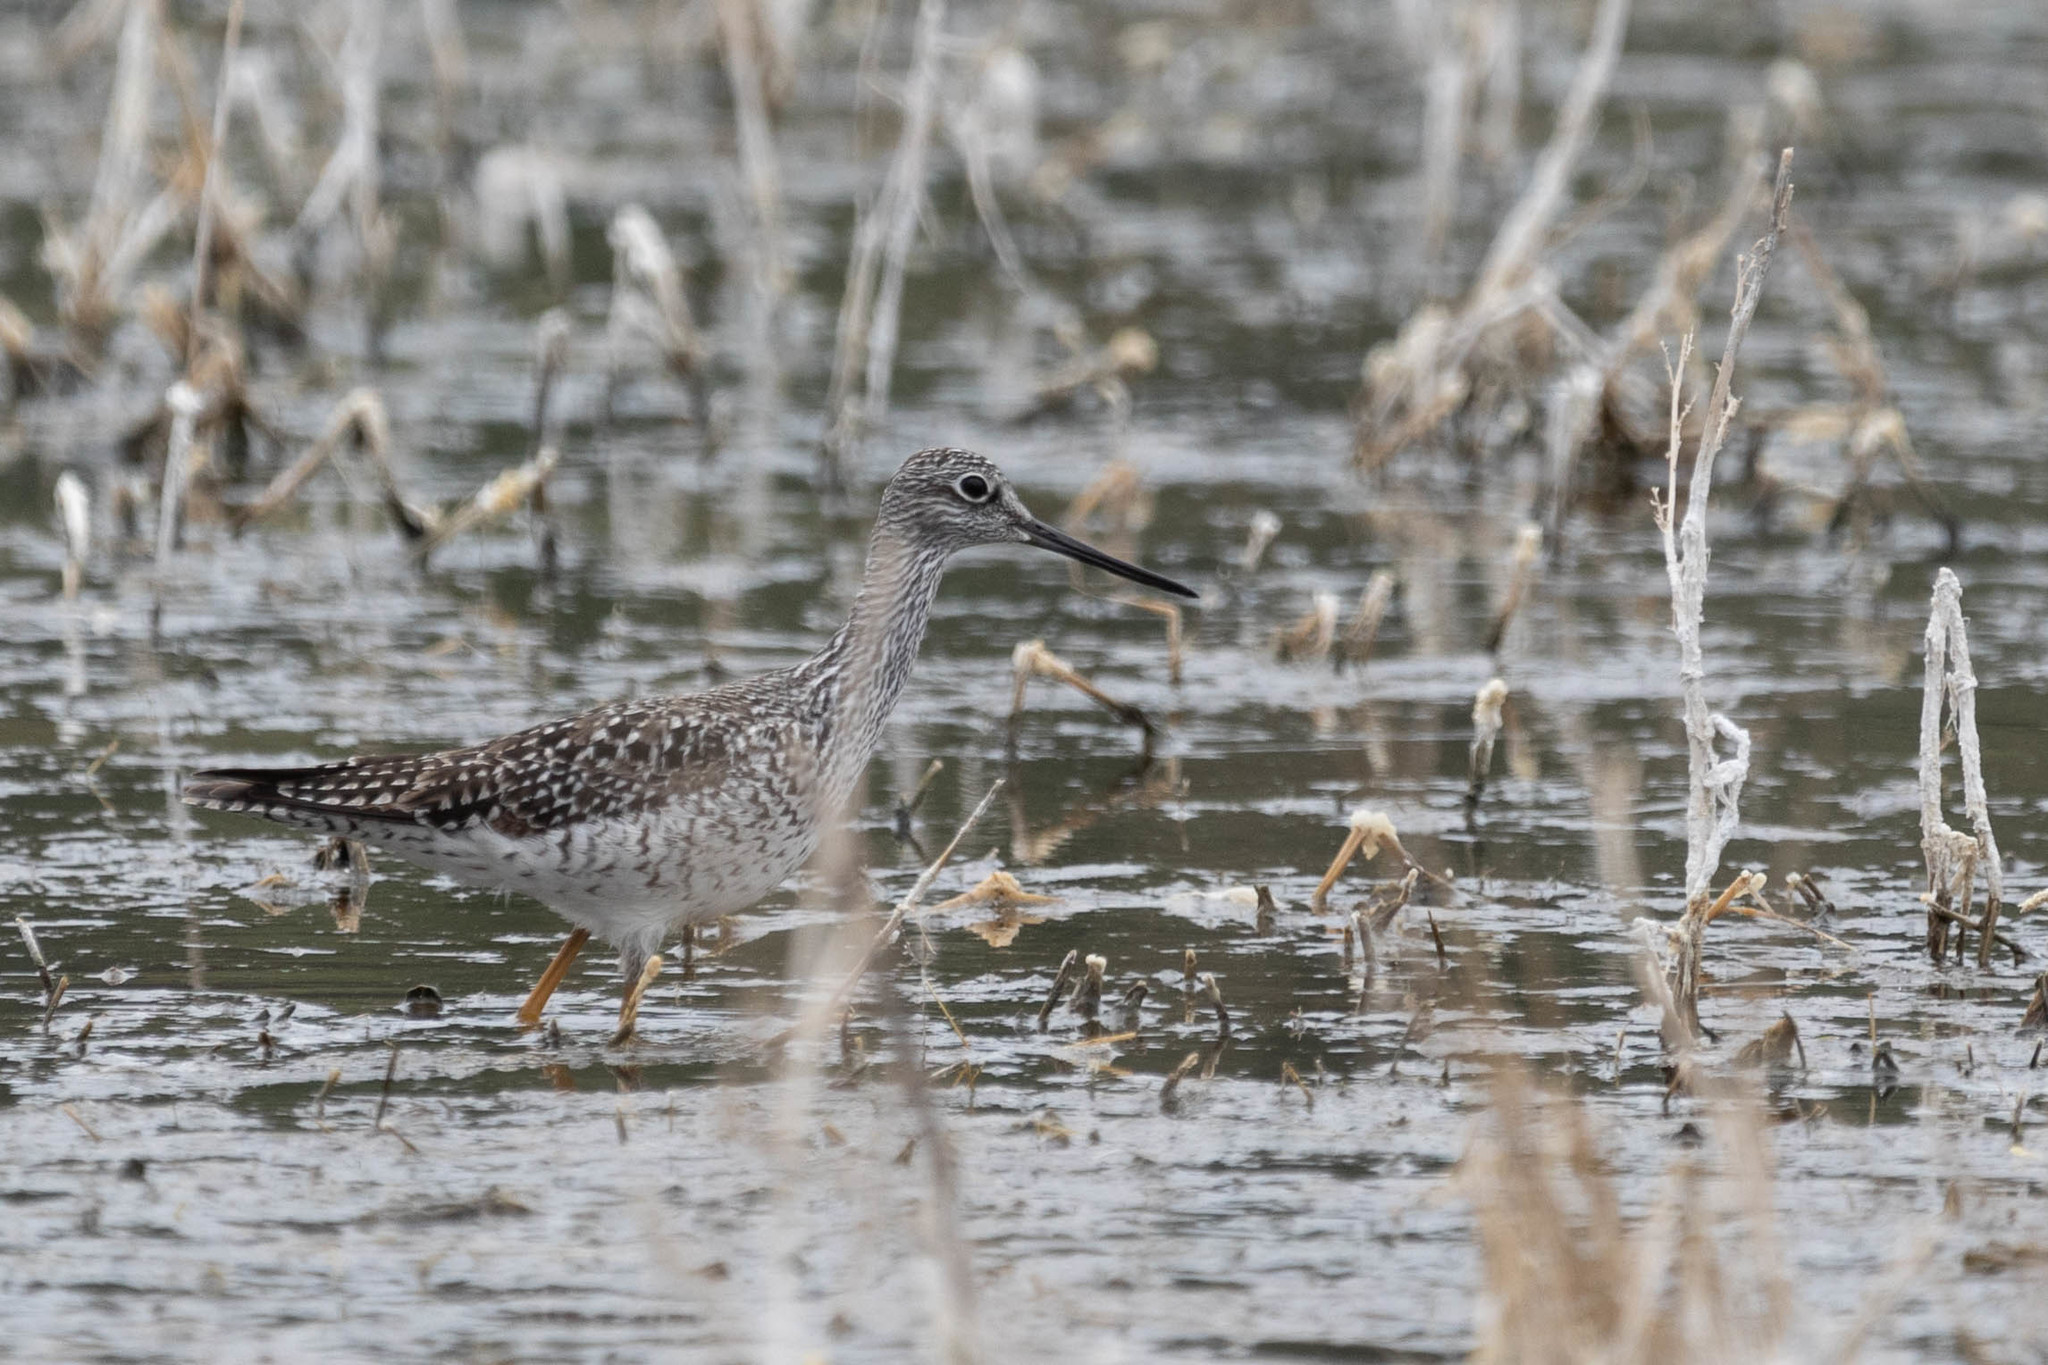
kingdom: Animalia
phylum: Chordata
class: Aves
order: Charadriiformes
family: Scolopacidae
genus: Tringa
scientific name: Tringa melanoleuca
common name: Greater yellowlegs
